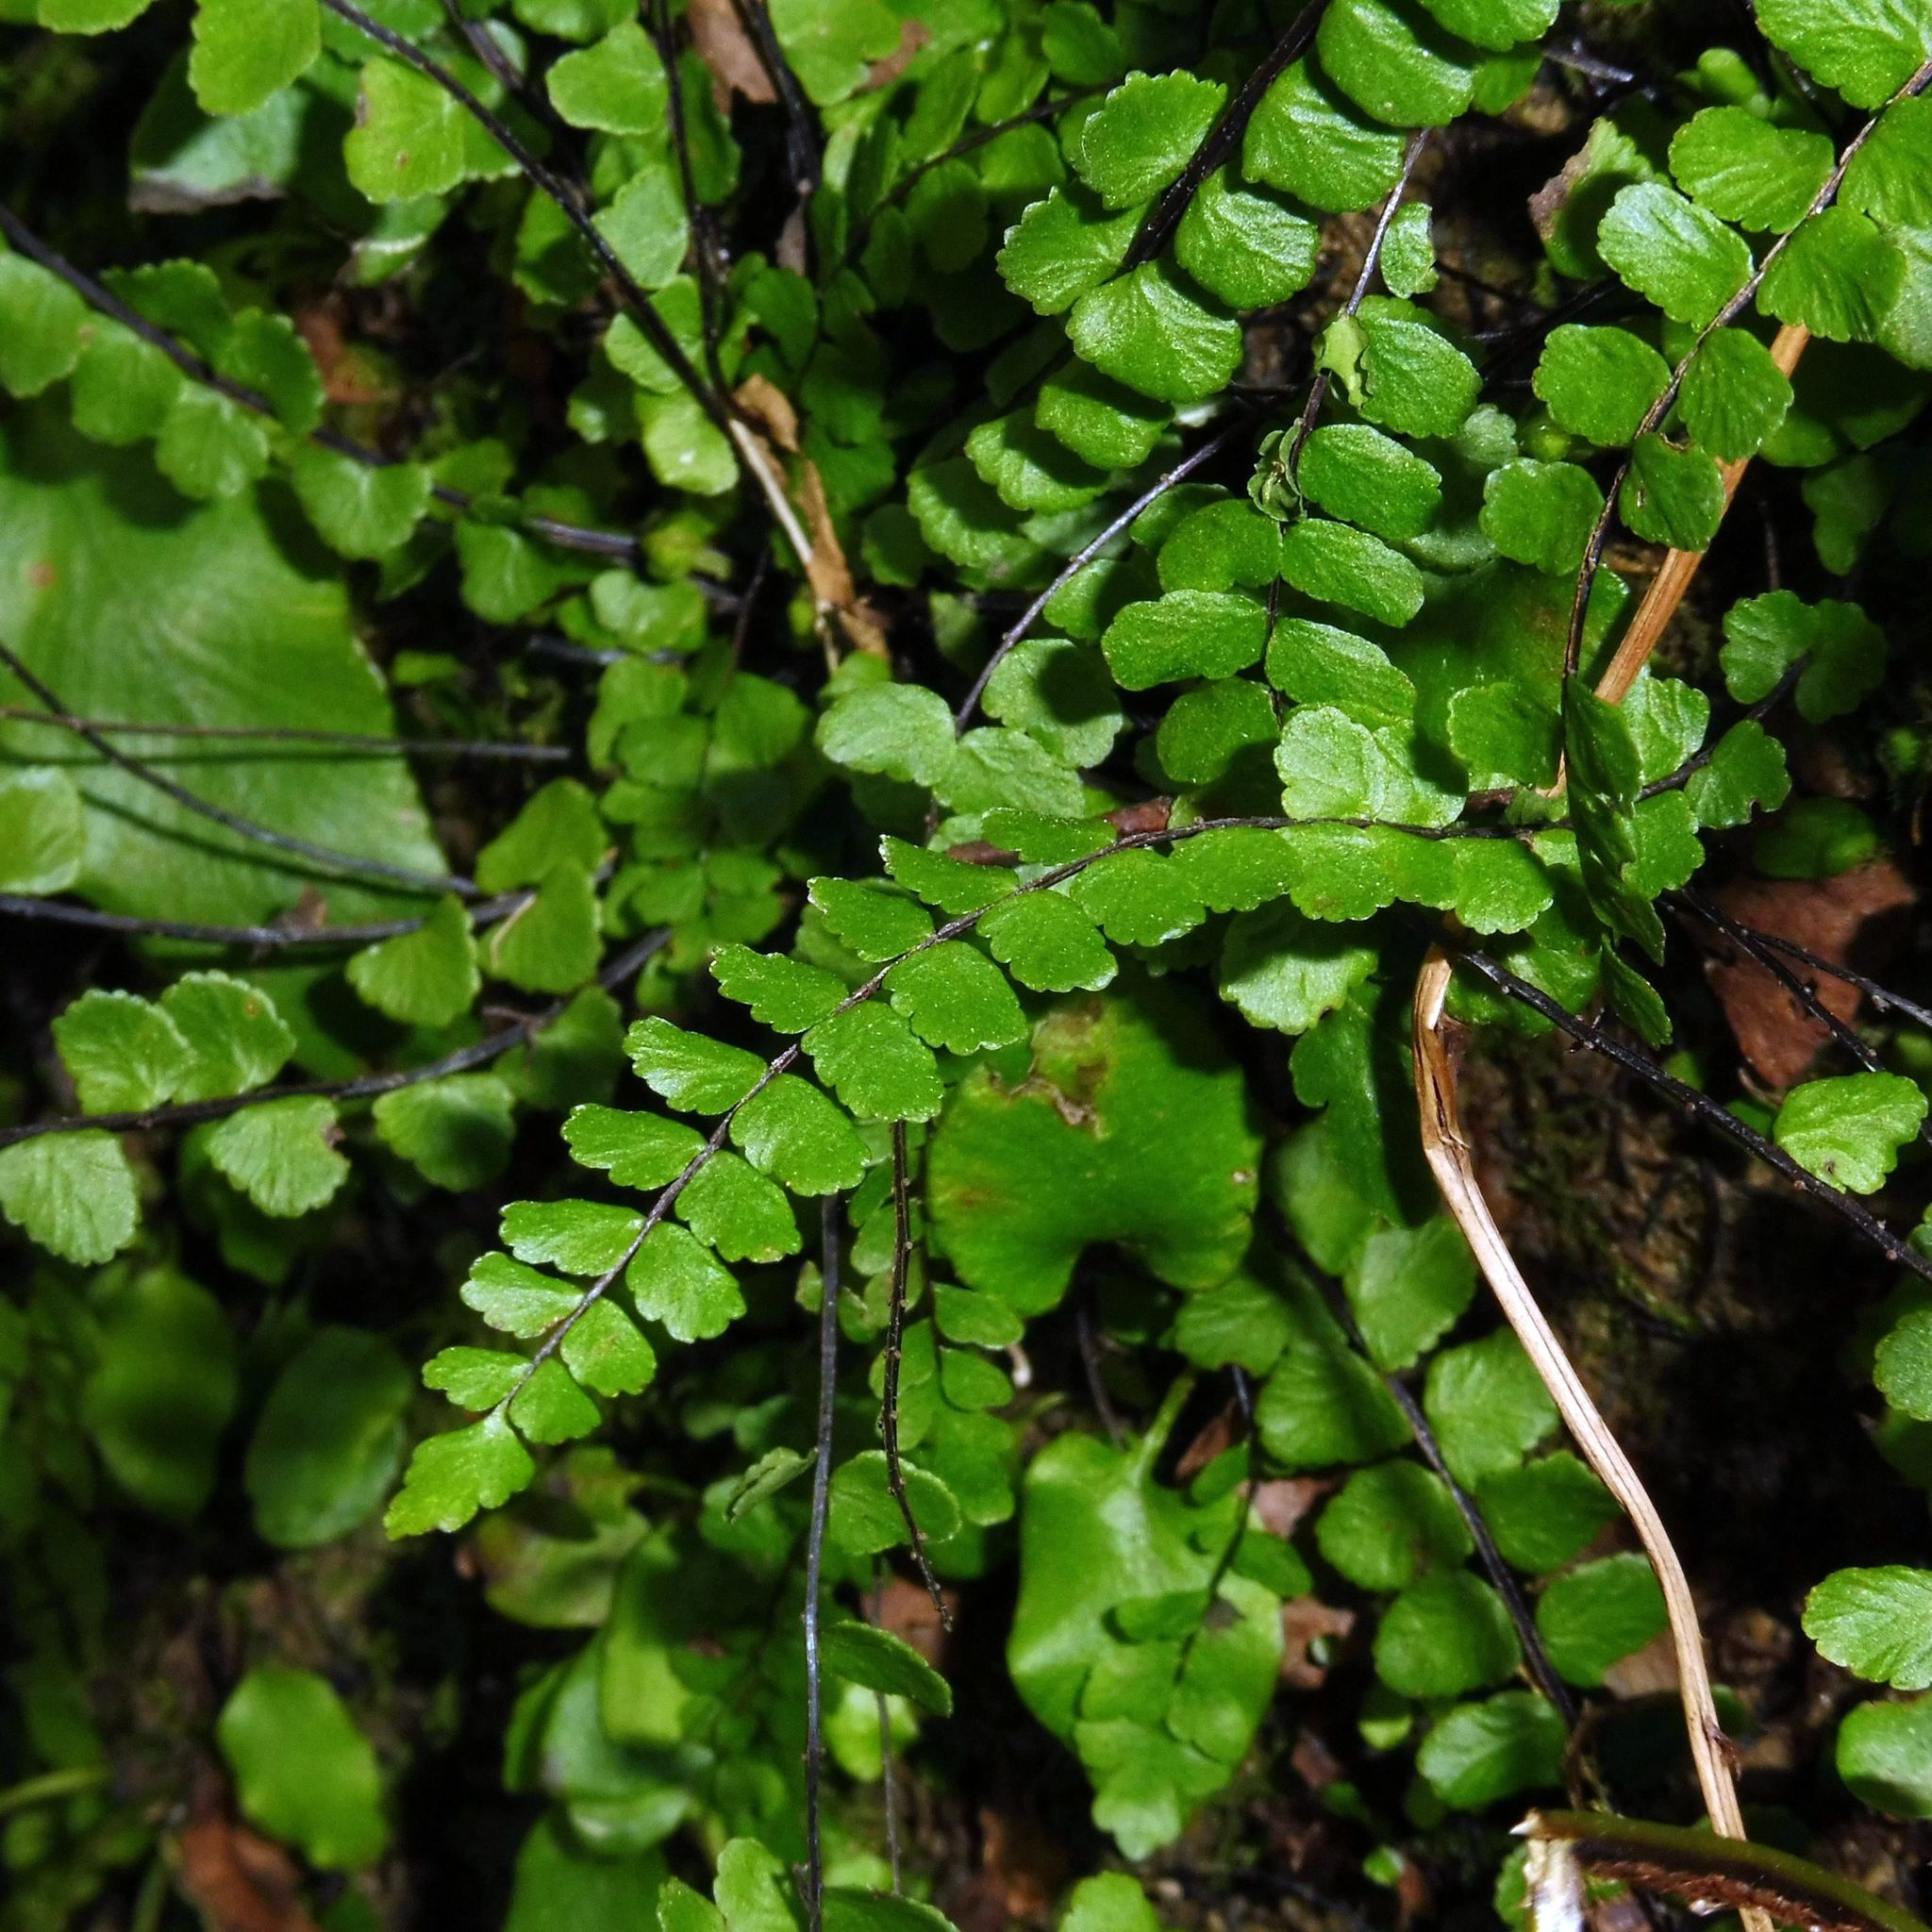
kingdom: Plantae
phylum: Tracheophyta
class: Polypodiopsida
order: Polypodiales
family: Aspleniaceae
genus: Asplenium
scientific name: Asplenium trichomanes
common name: Maidenhair spleenwort
